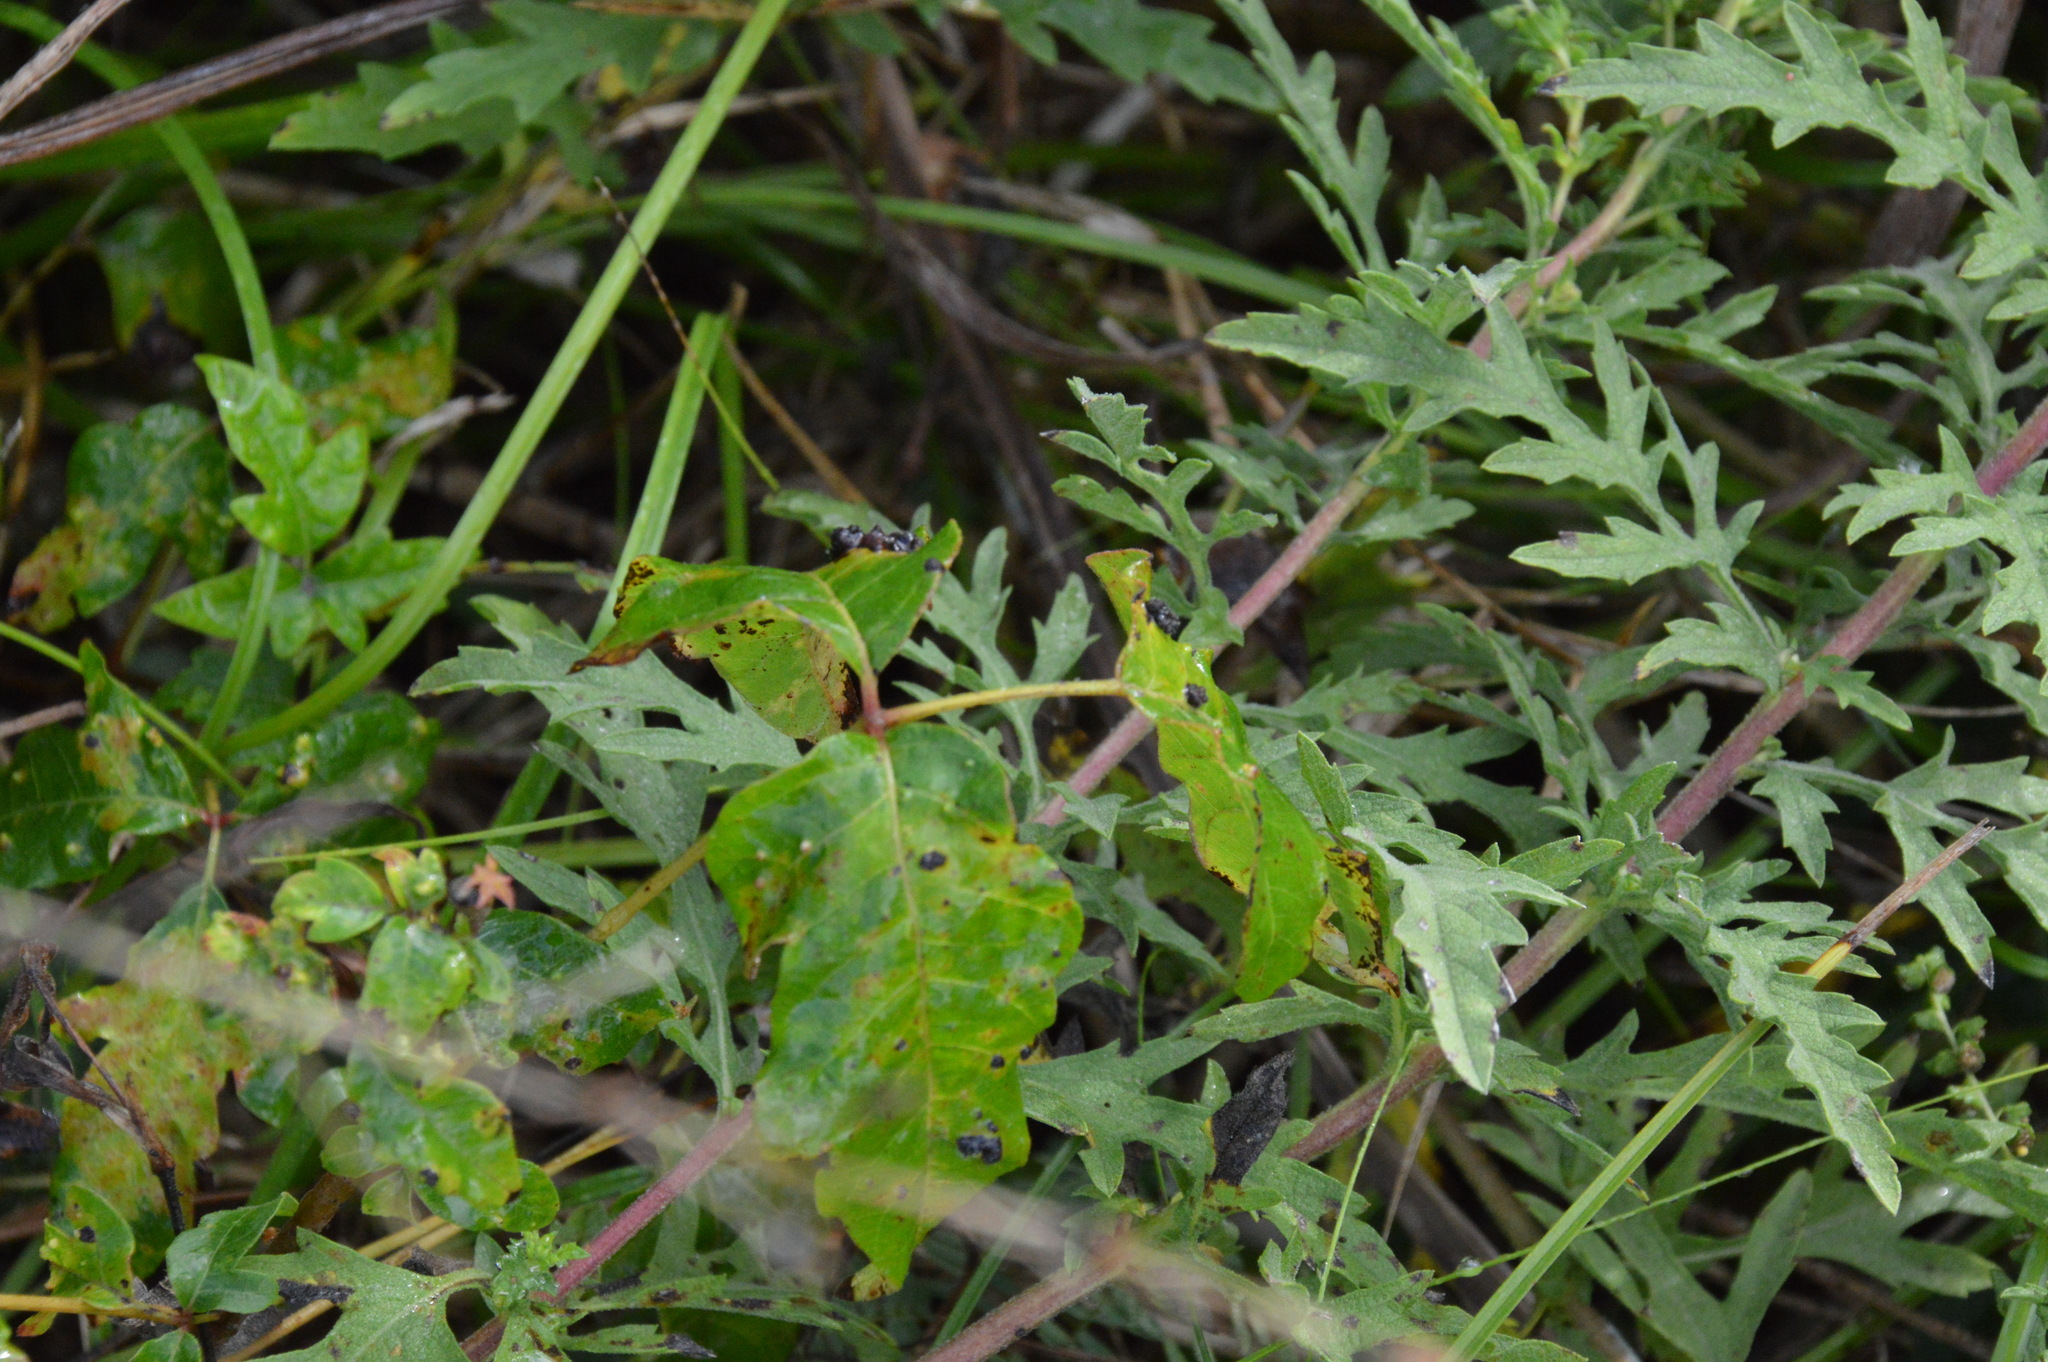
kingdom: Plantae
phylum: Tracheophyta
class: Magnoliopsida
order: Sapindales
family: Anacardiaceae
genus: Toxicodendron
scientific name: Toxicodendron radicans
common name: Poison ivy
